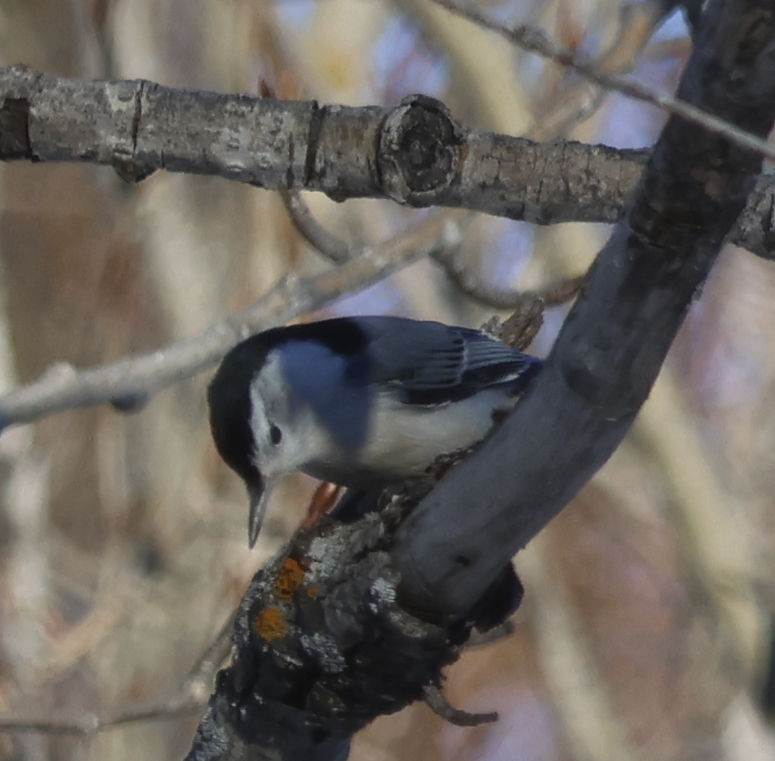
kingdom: Animalia
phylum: Chordata
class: Aves
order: Passeriformes
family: Sittidae
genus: Sitta
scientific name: Sitta carolinensis
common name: White-breasted nuthatch
